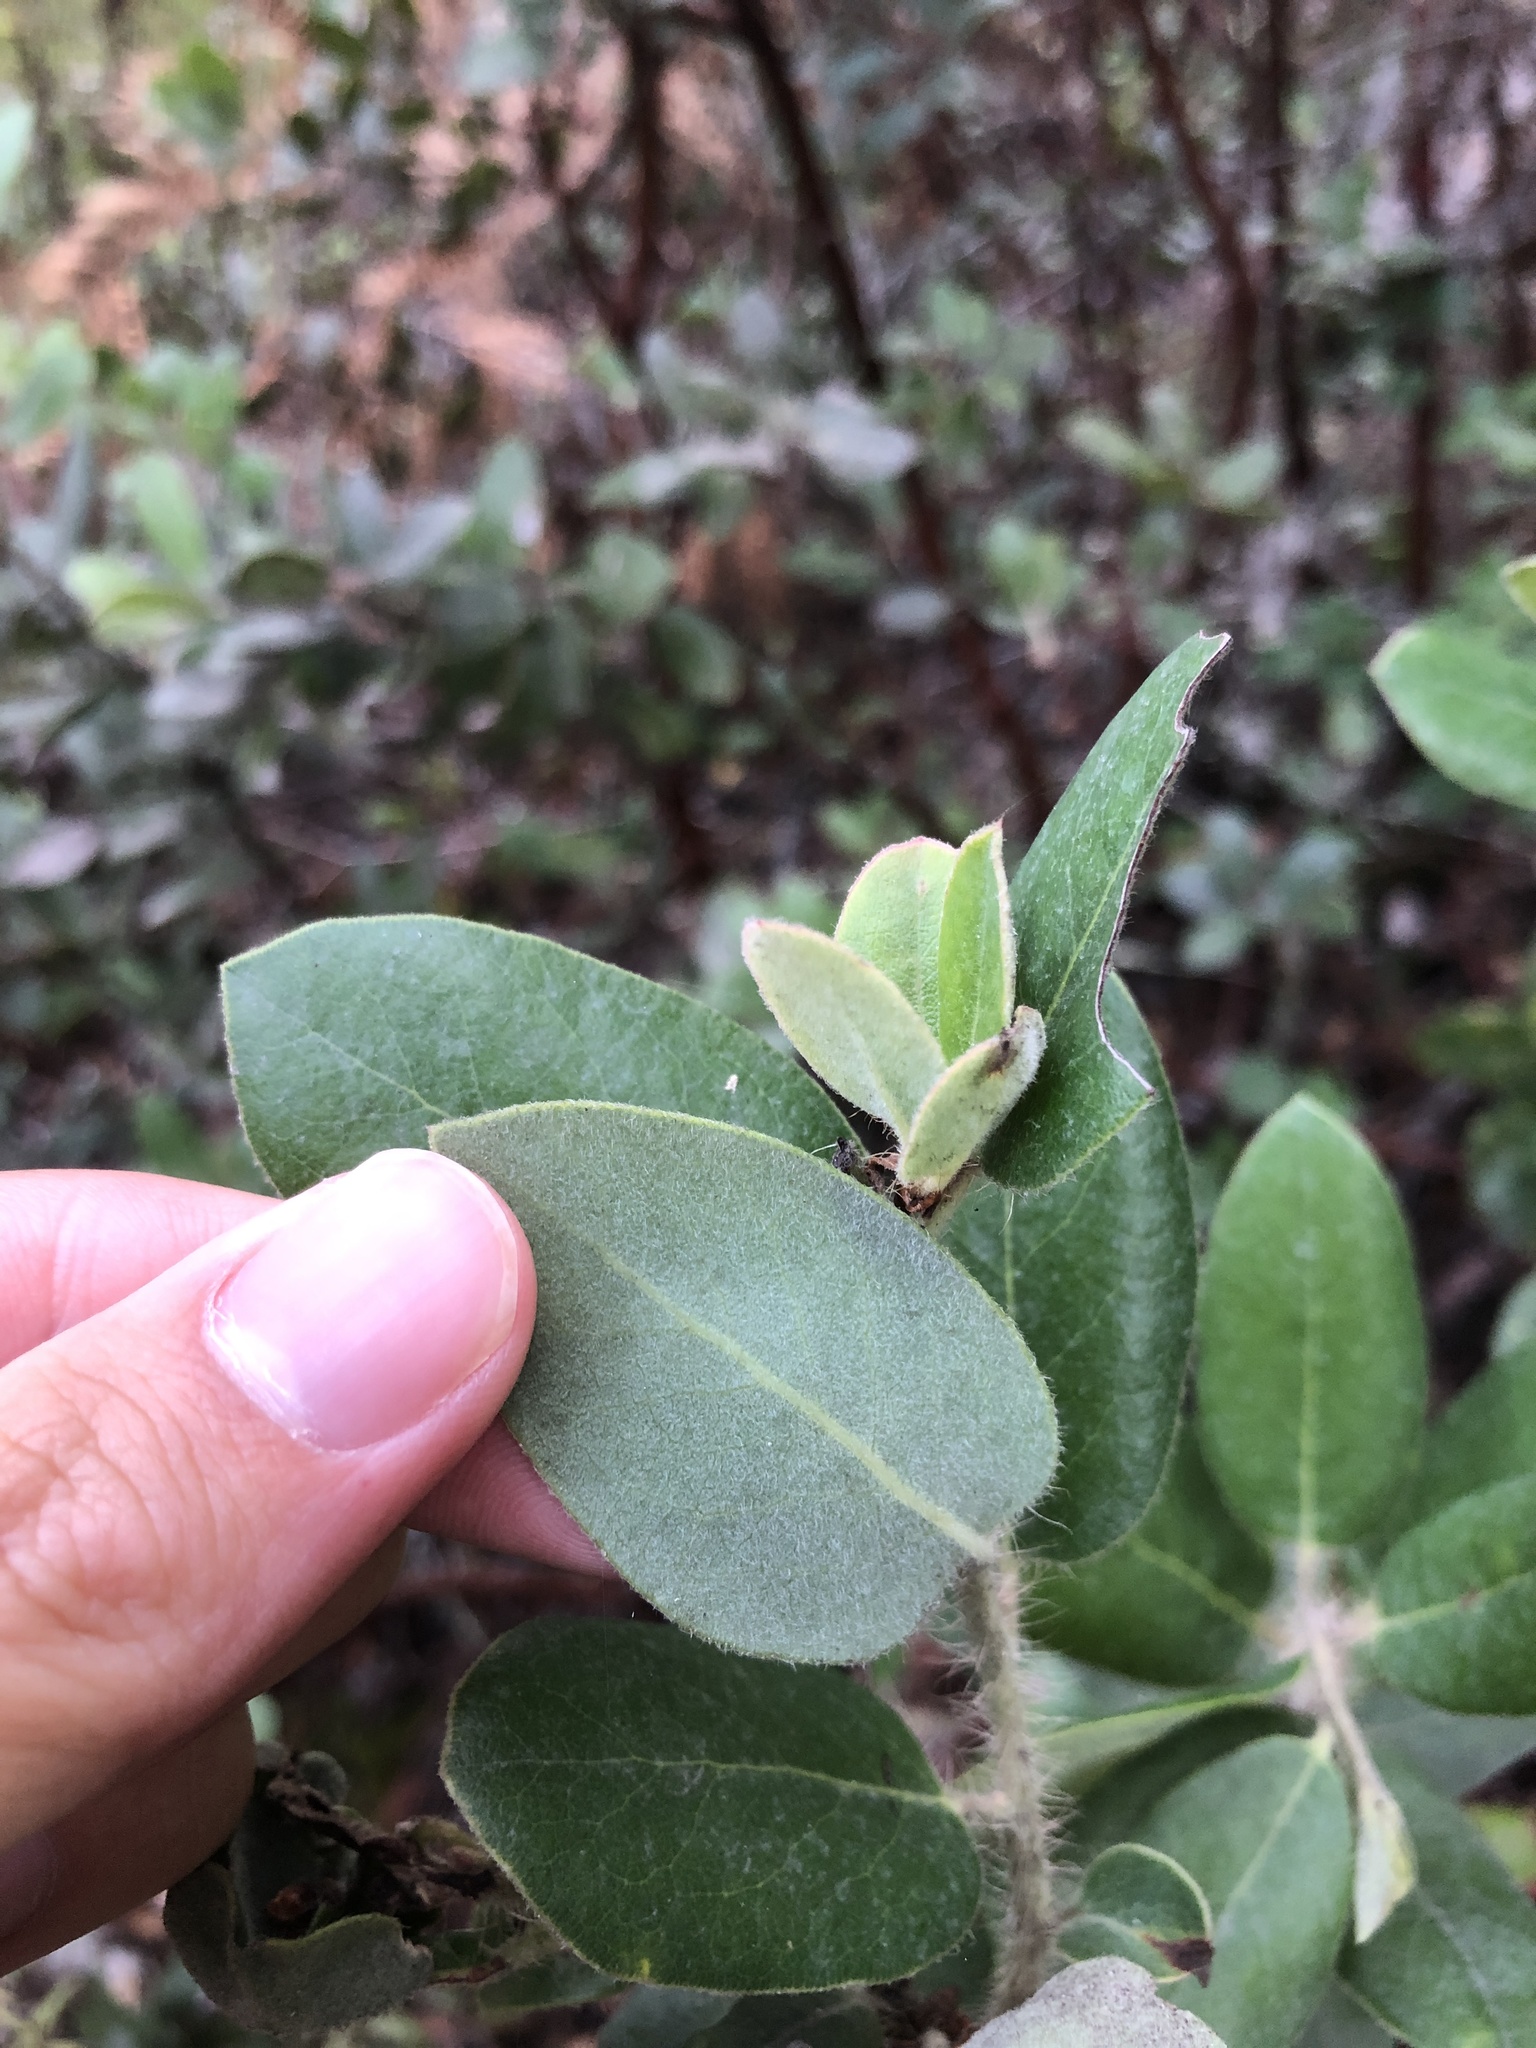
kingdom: Plantae
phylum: Tracheophyta
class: Magnoliopsida
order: Ericales
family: Ericaceae
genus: Arctostaphylos
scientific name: Arctostaphylos crustacea
